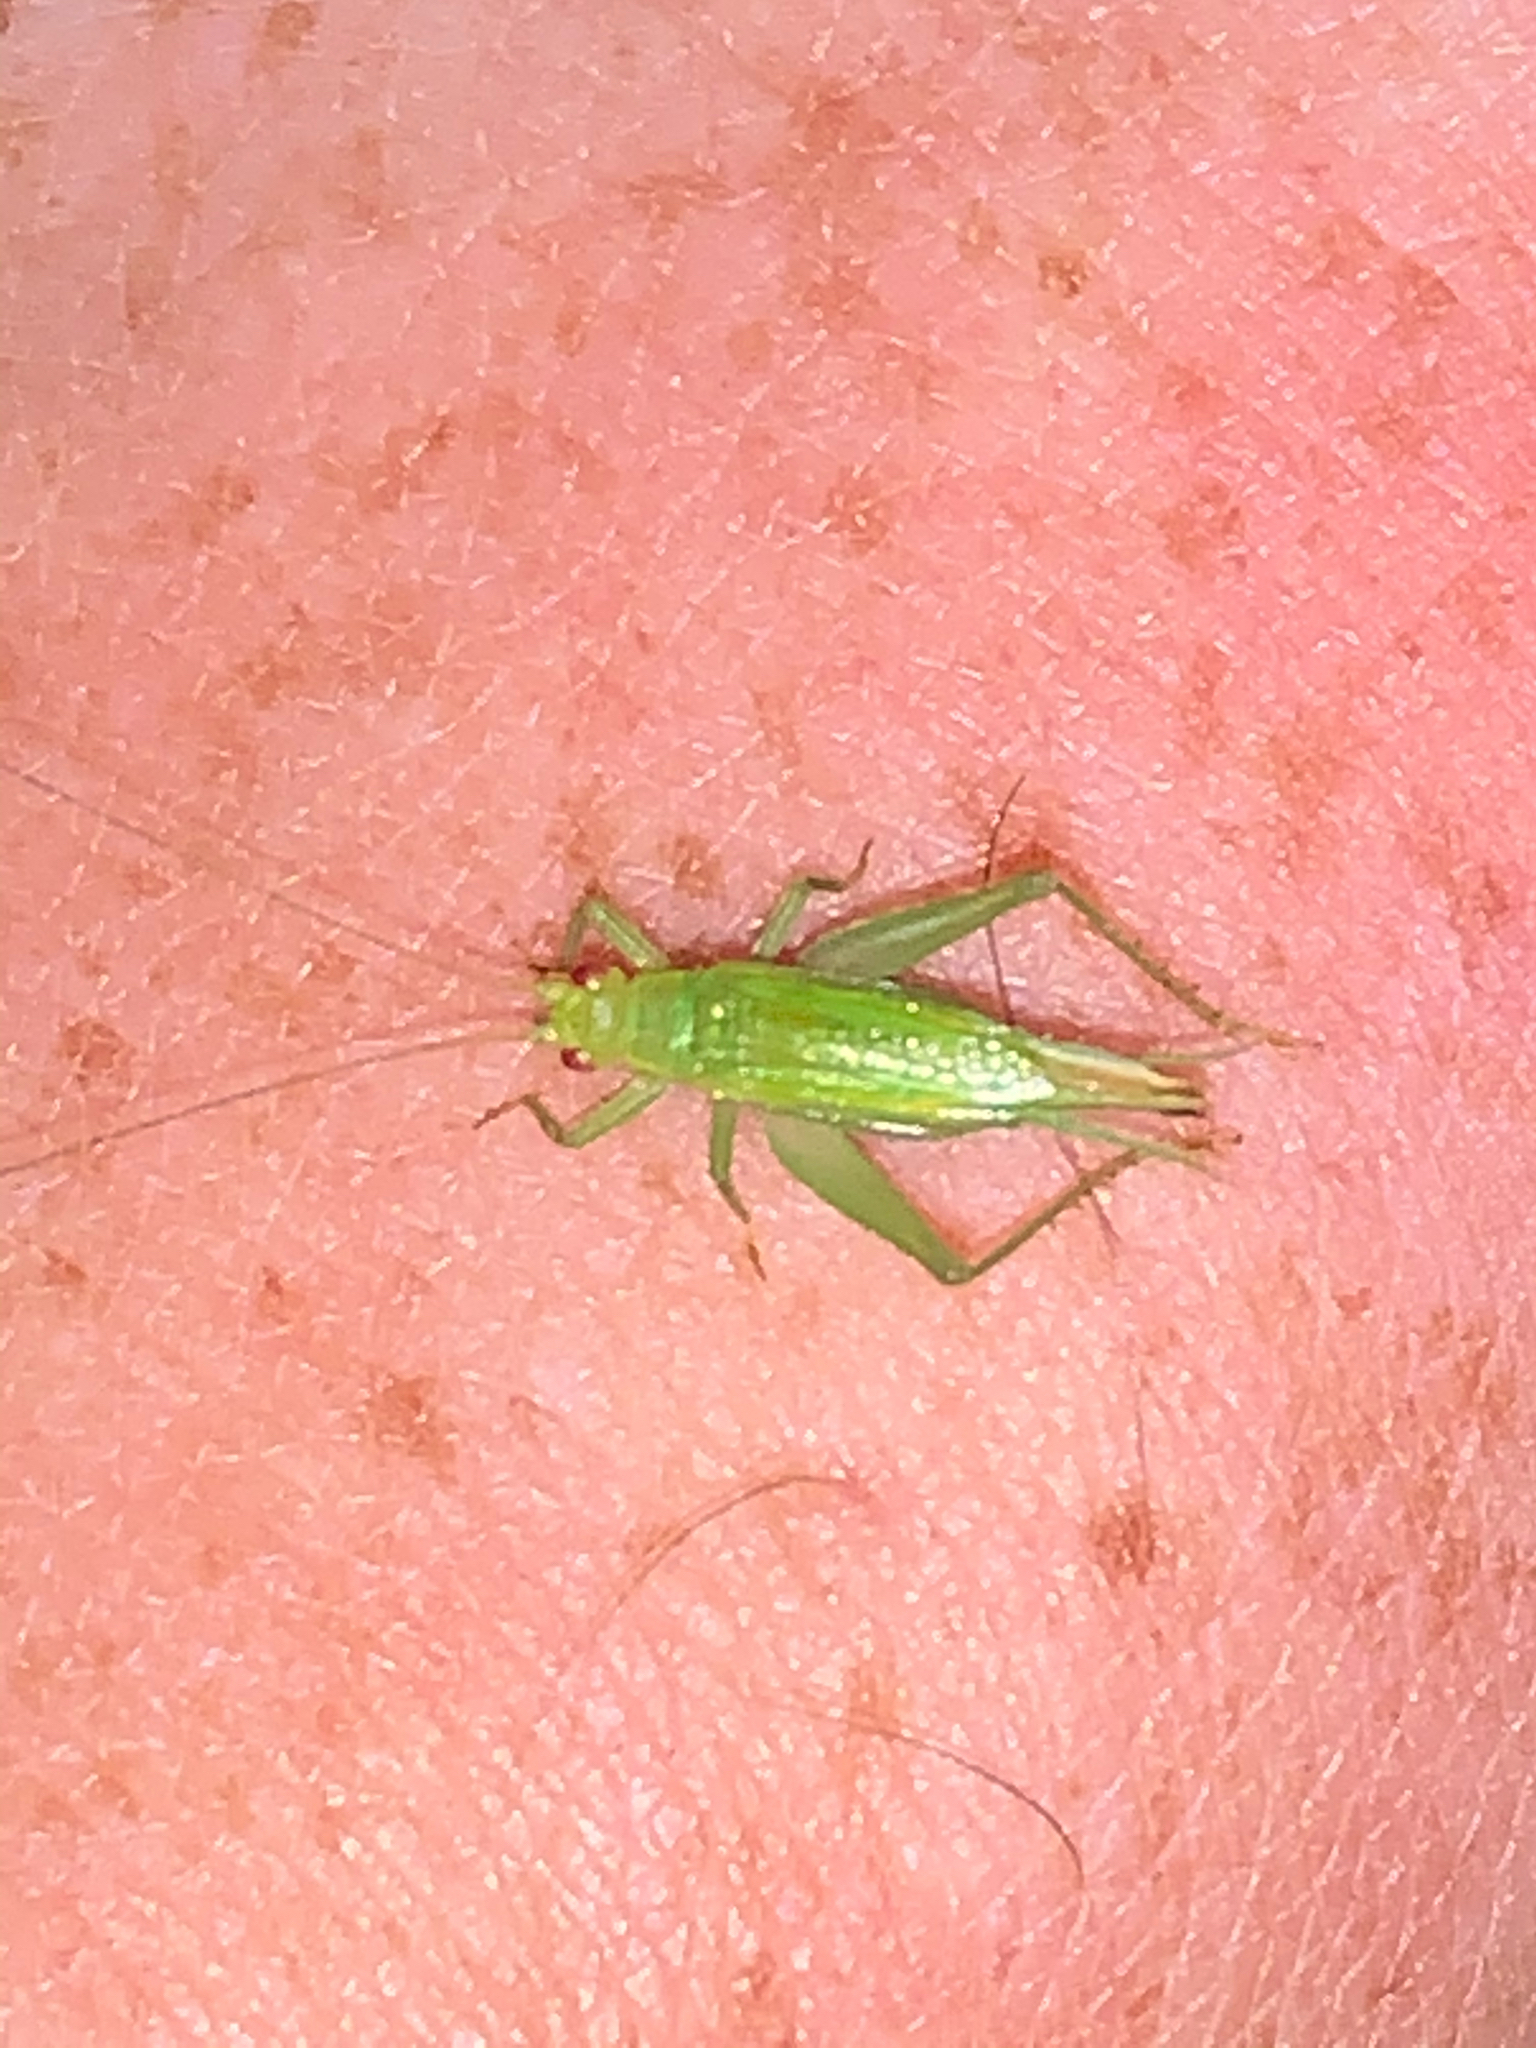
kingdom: Animalia
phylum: Arthropoda
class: Insecta
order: Orthoptera
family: Trigonidiidae
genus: Cyrtoxipha
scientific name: Cyrtoxipha columbiana
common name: Columbian trig
